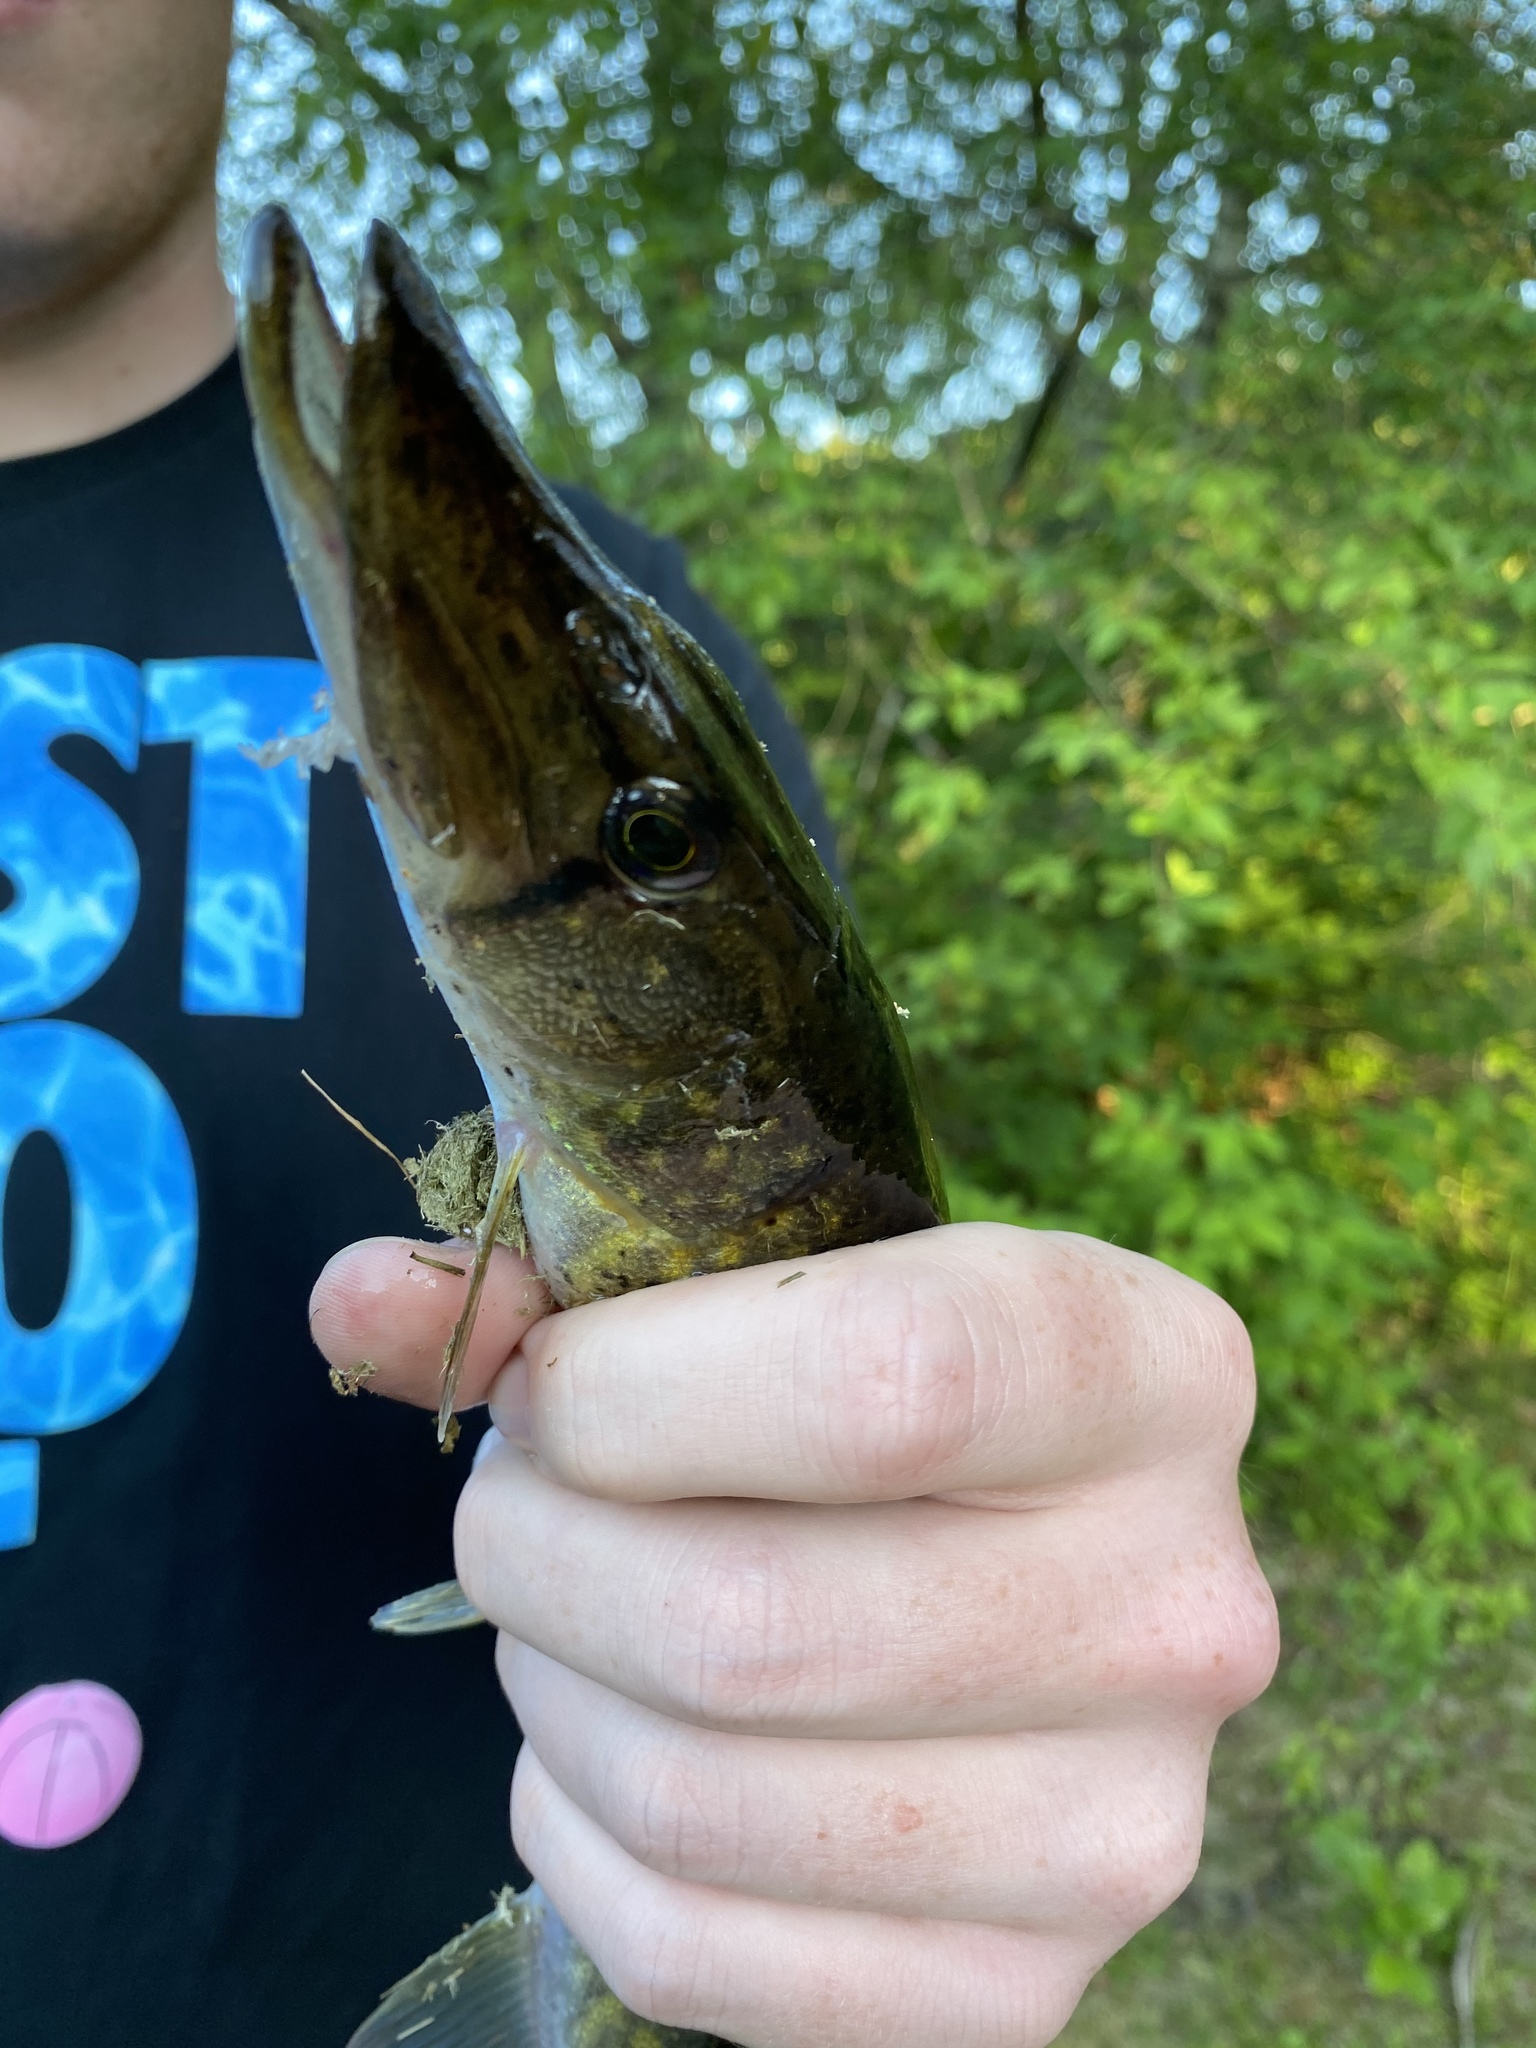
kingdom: Animalia
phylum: Chordata
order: Esociformes
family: Esocidae
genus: Esox
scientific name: Esox niger
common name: Chain pickerel
